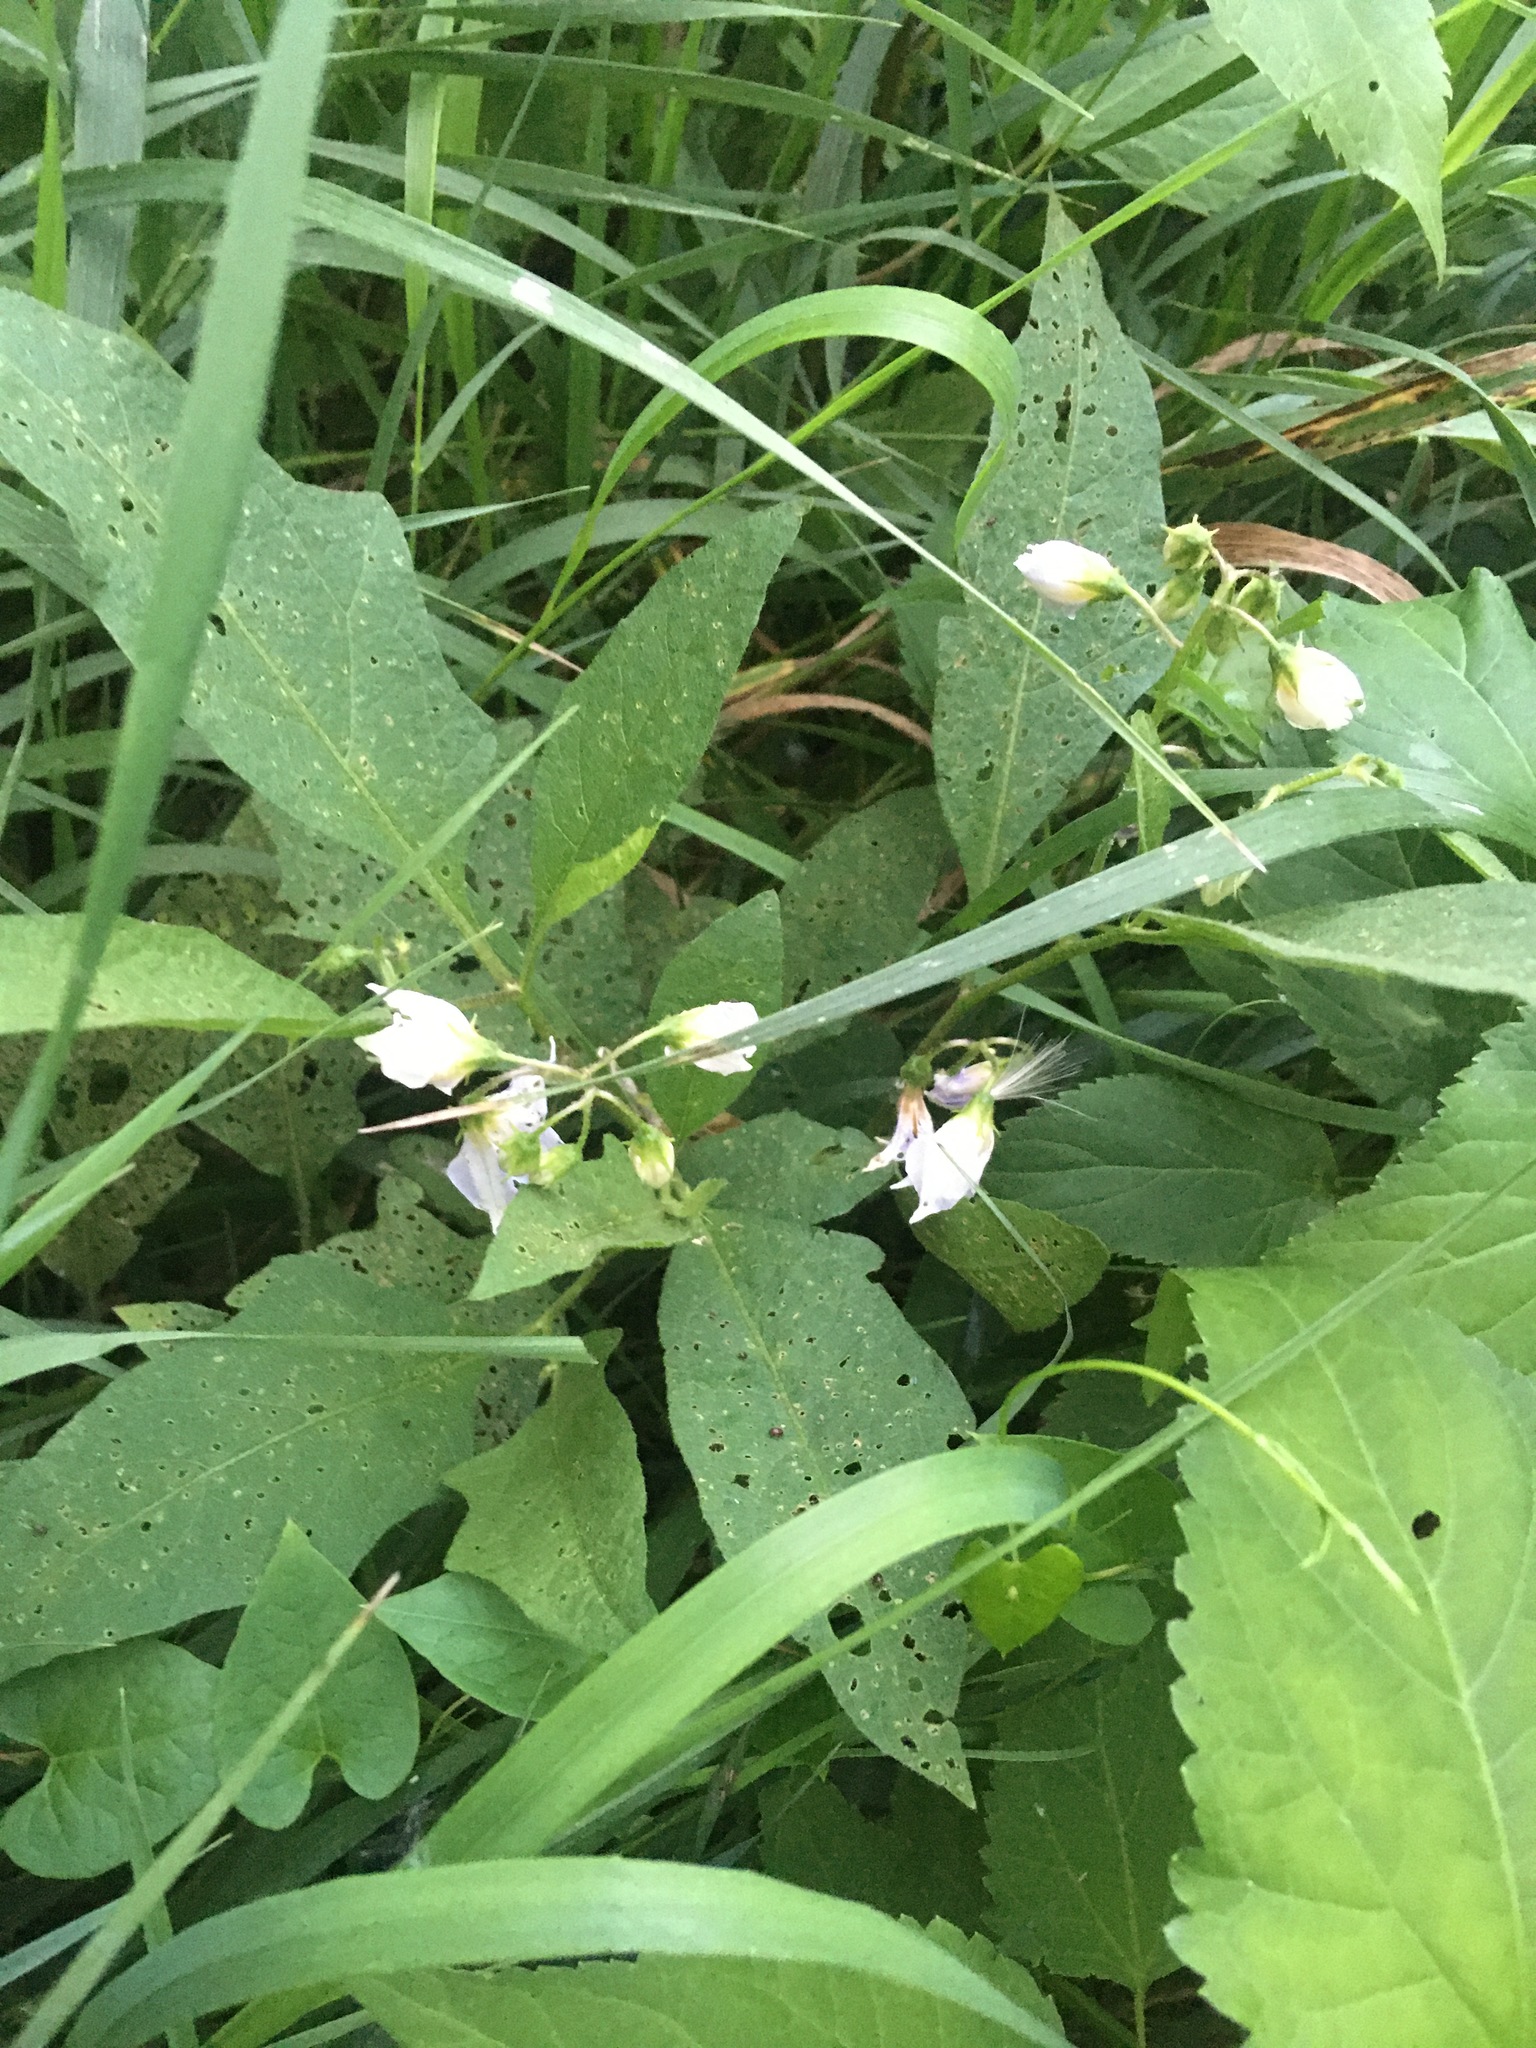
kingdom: Plantae
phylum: Tracheophyta
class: Magnoliopsida
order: Solanales
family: Solanaceae
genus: Solanum
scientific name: Solanum carolinense
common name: Horse-nettle
